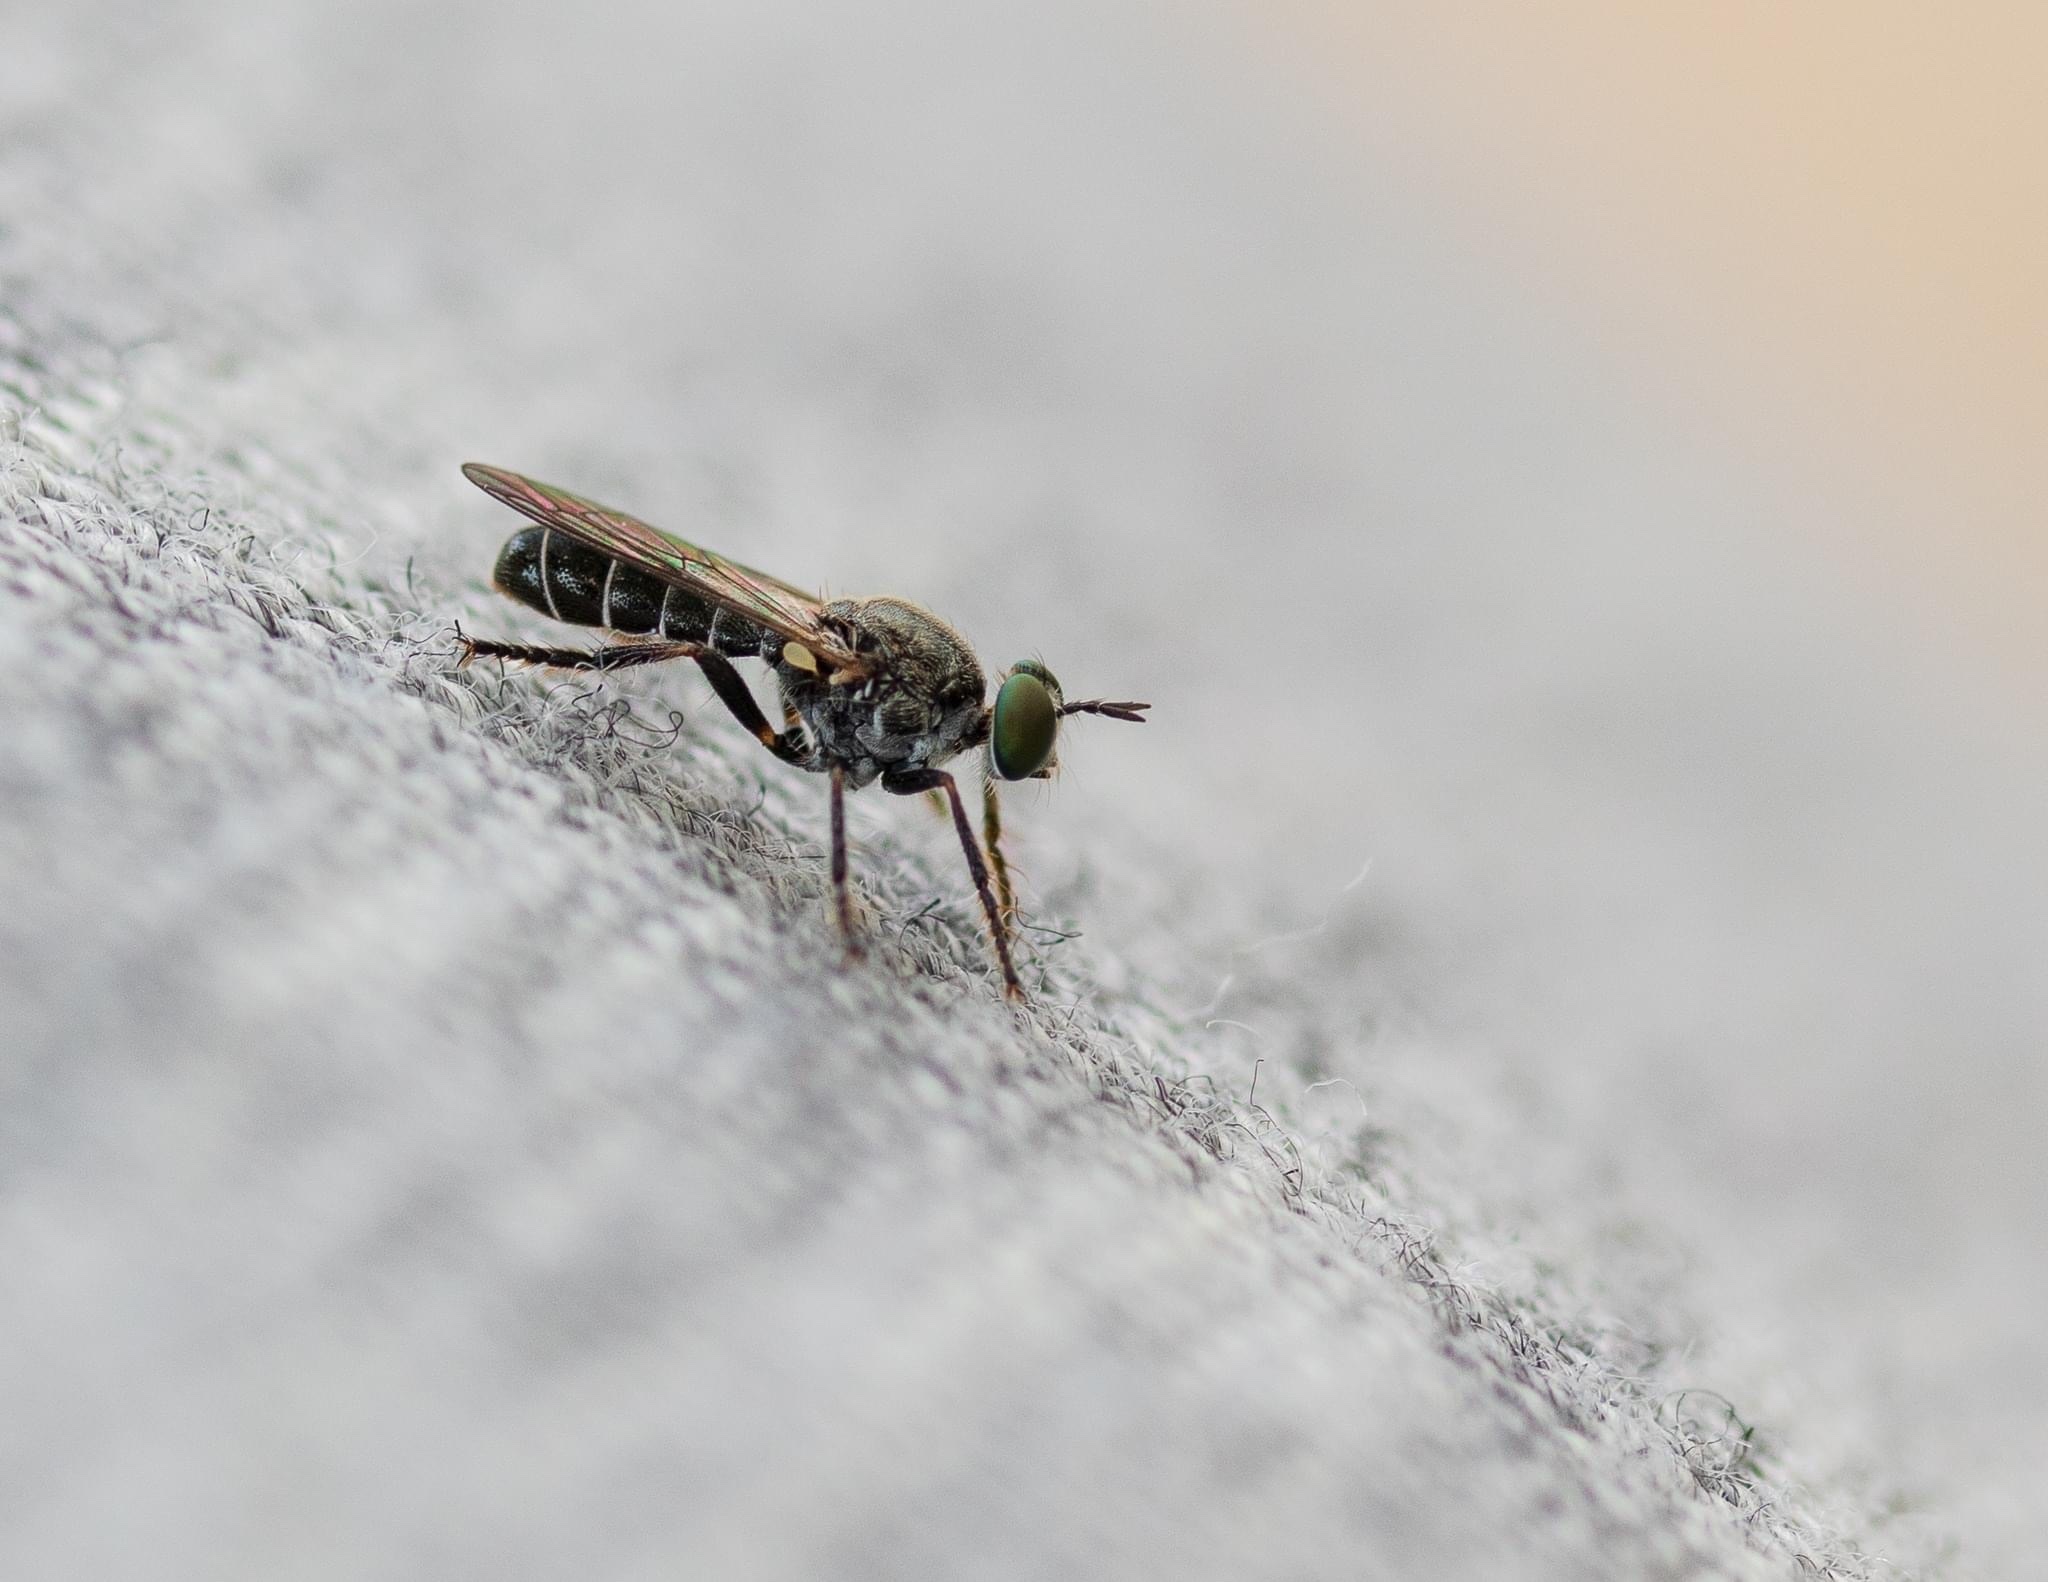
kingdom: Animalia
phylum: Arthropoda
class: Insecta
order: Diptera
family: Asilidae
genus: Atomosia
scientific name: Atomosia puella
